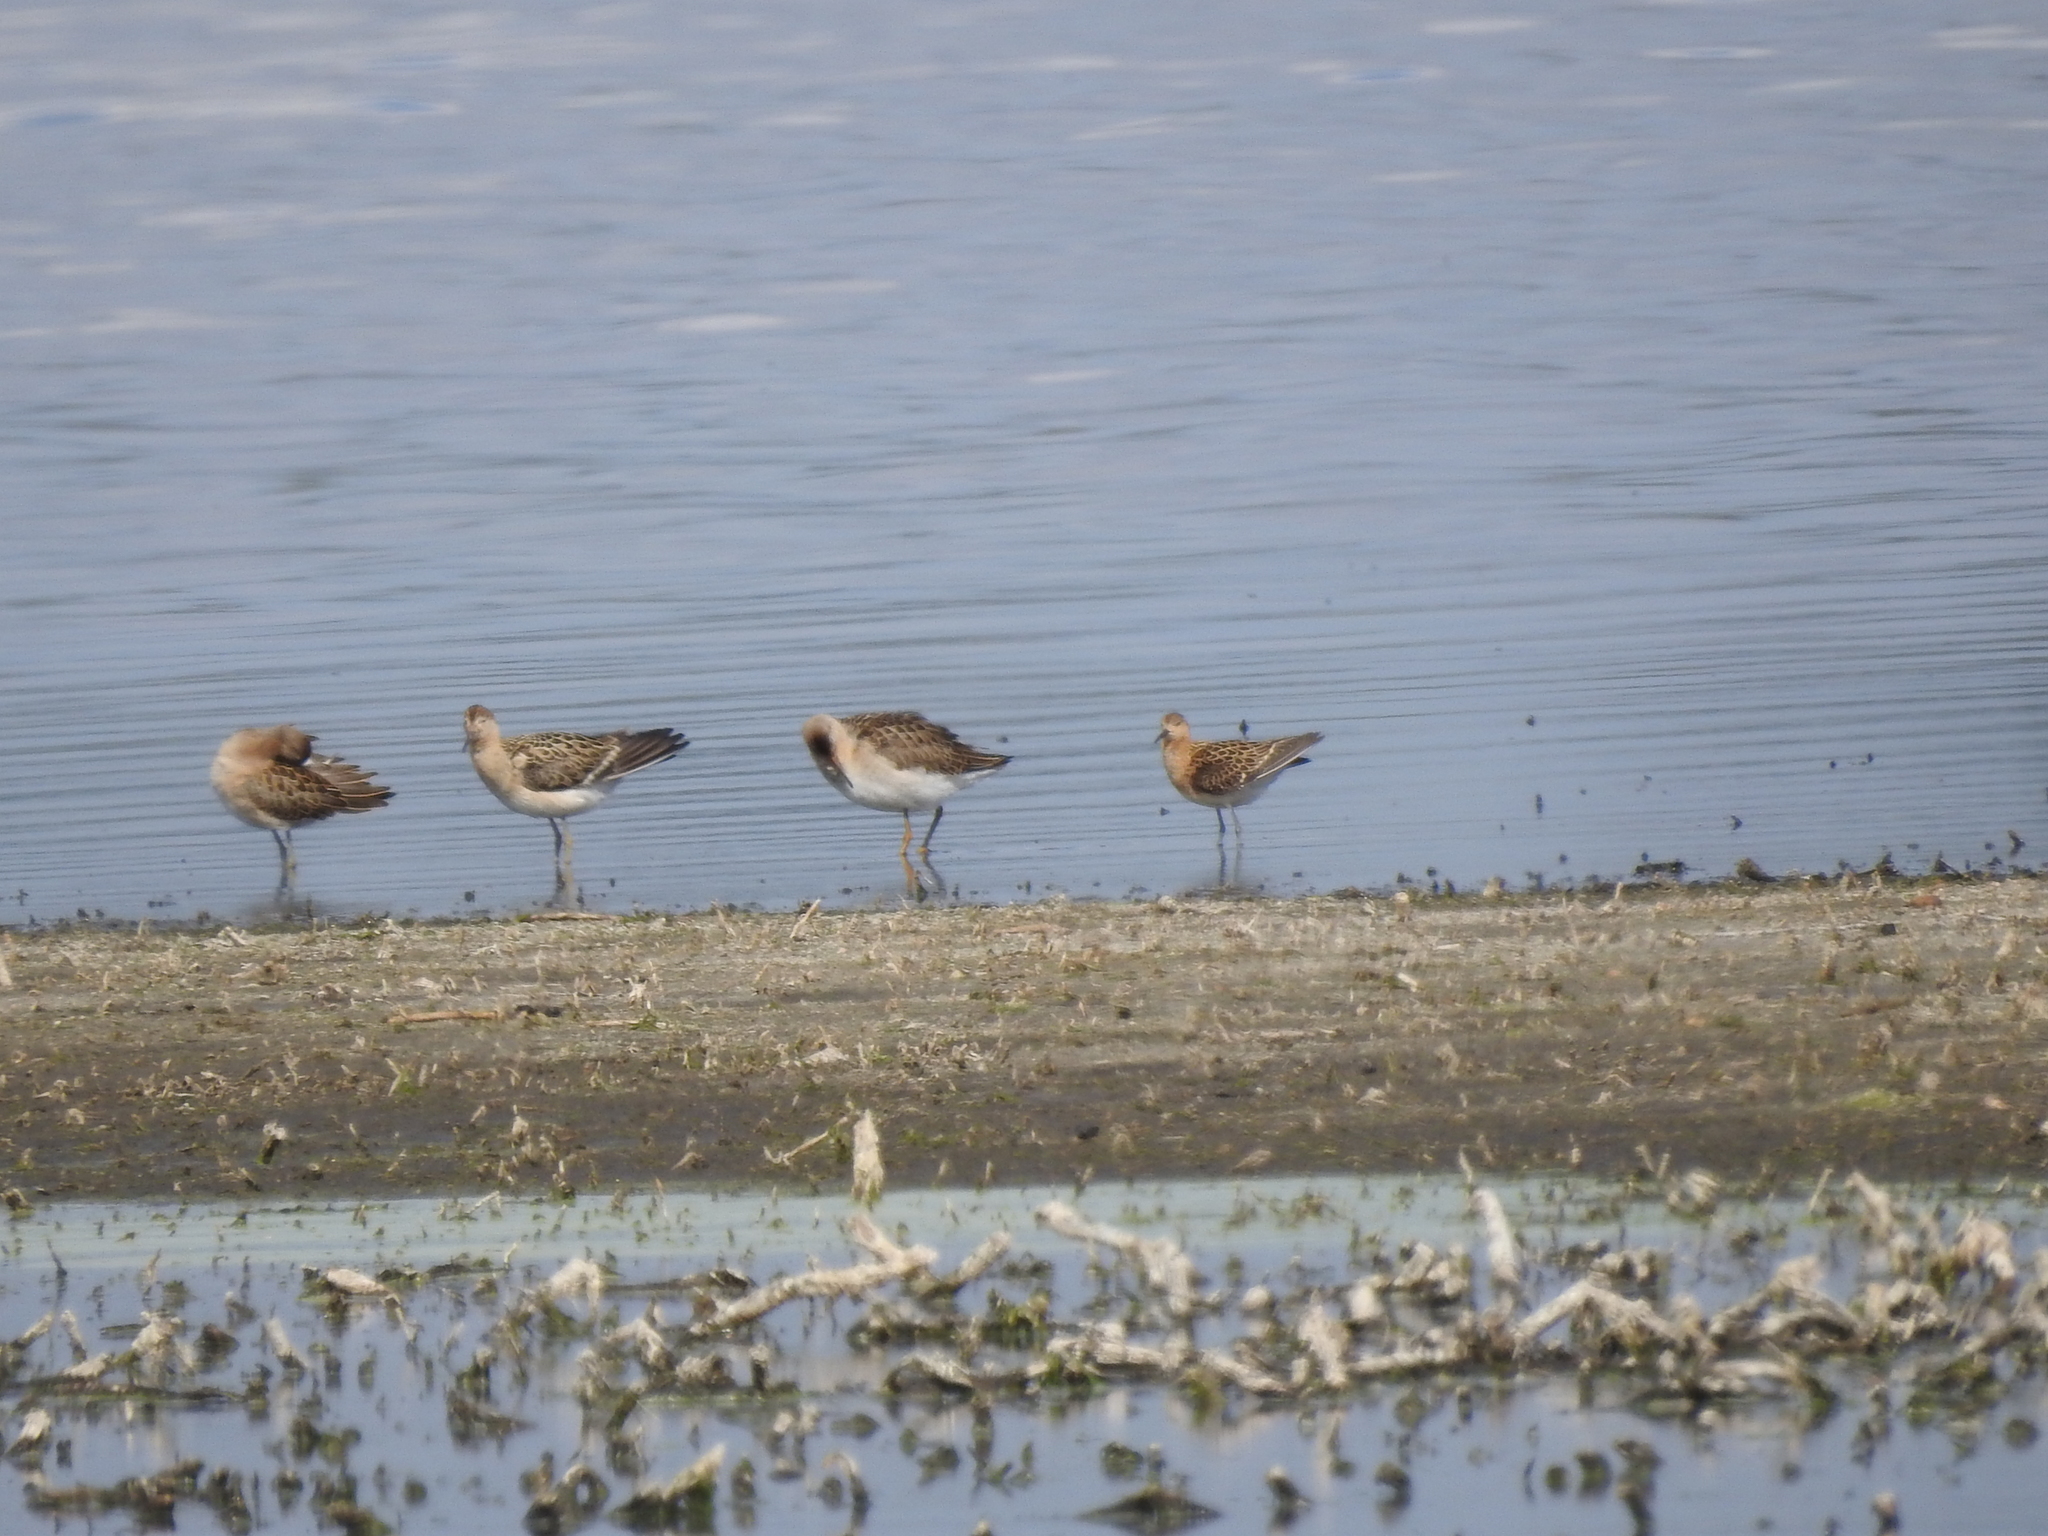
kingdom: Animalia
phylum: Chordata
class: Aves
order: Charadriiformes
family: Scolopacidae
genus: Calidris
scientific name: Calidris pugnax
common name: Ruff
